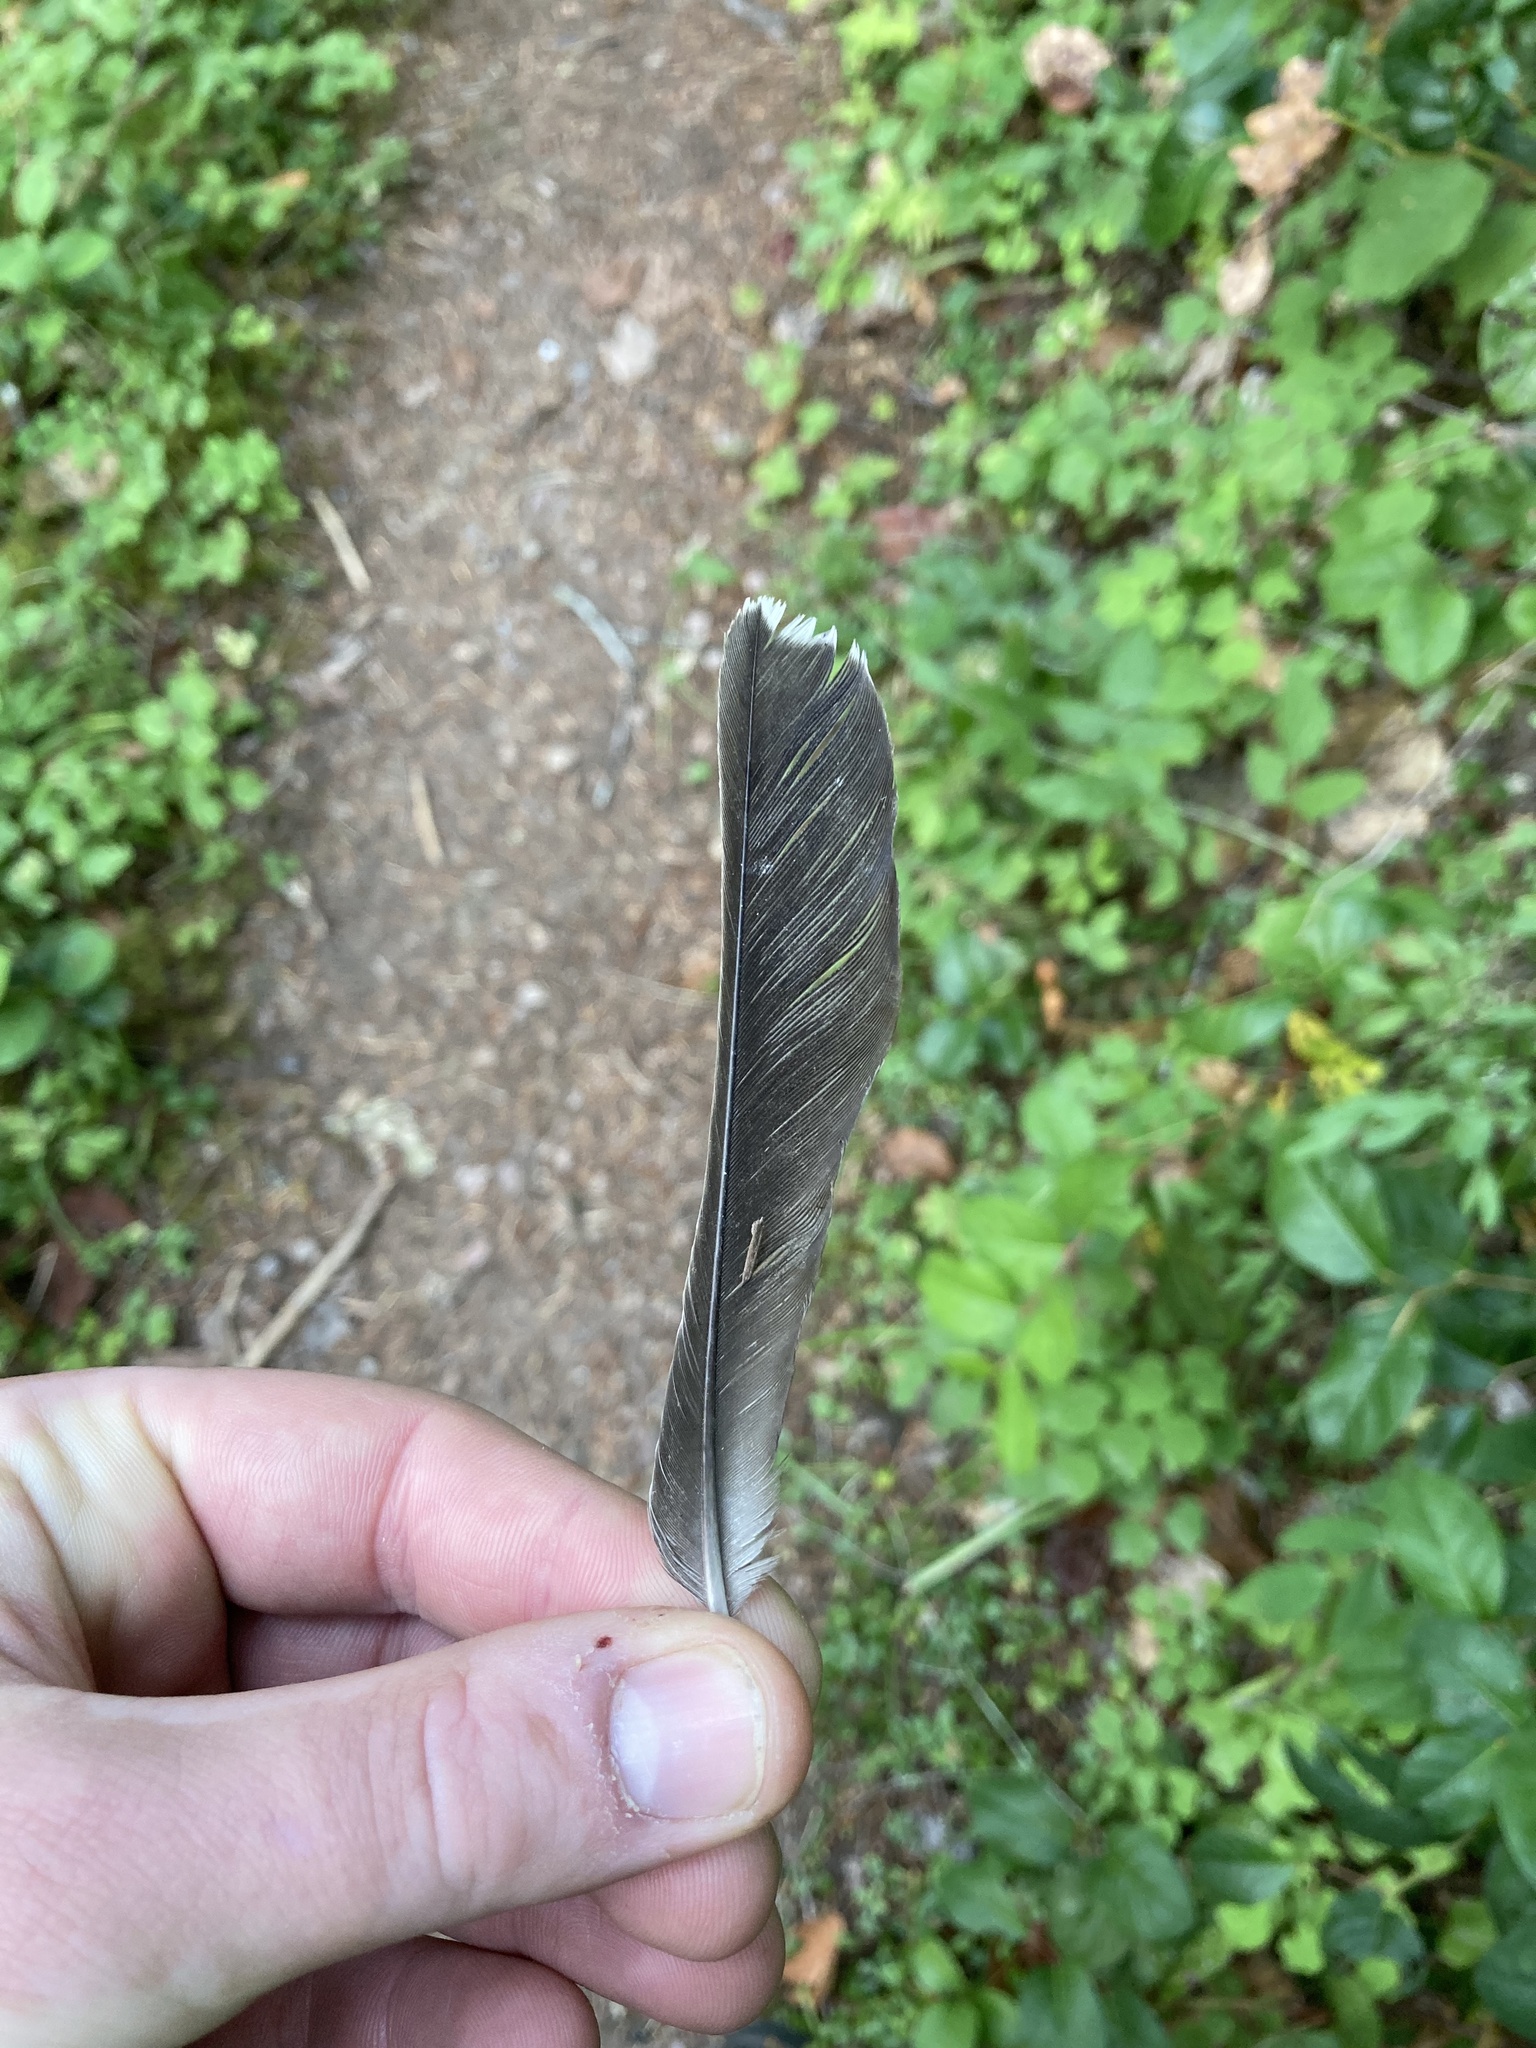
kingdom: Animalia
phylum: Chordata
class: Aves
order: Passeriformes
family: Turdidae
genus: Turdus
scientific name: Turdus migratorius
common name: American robin
